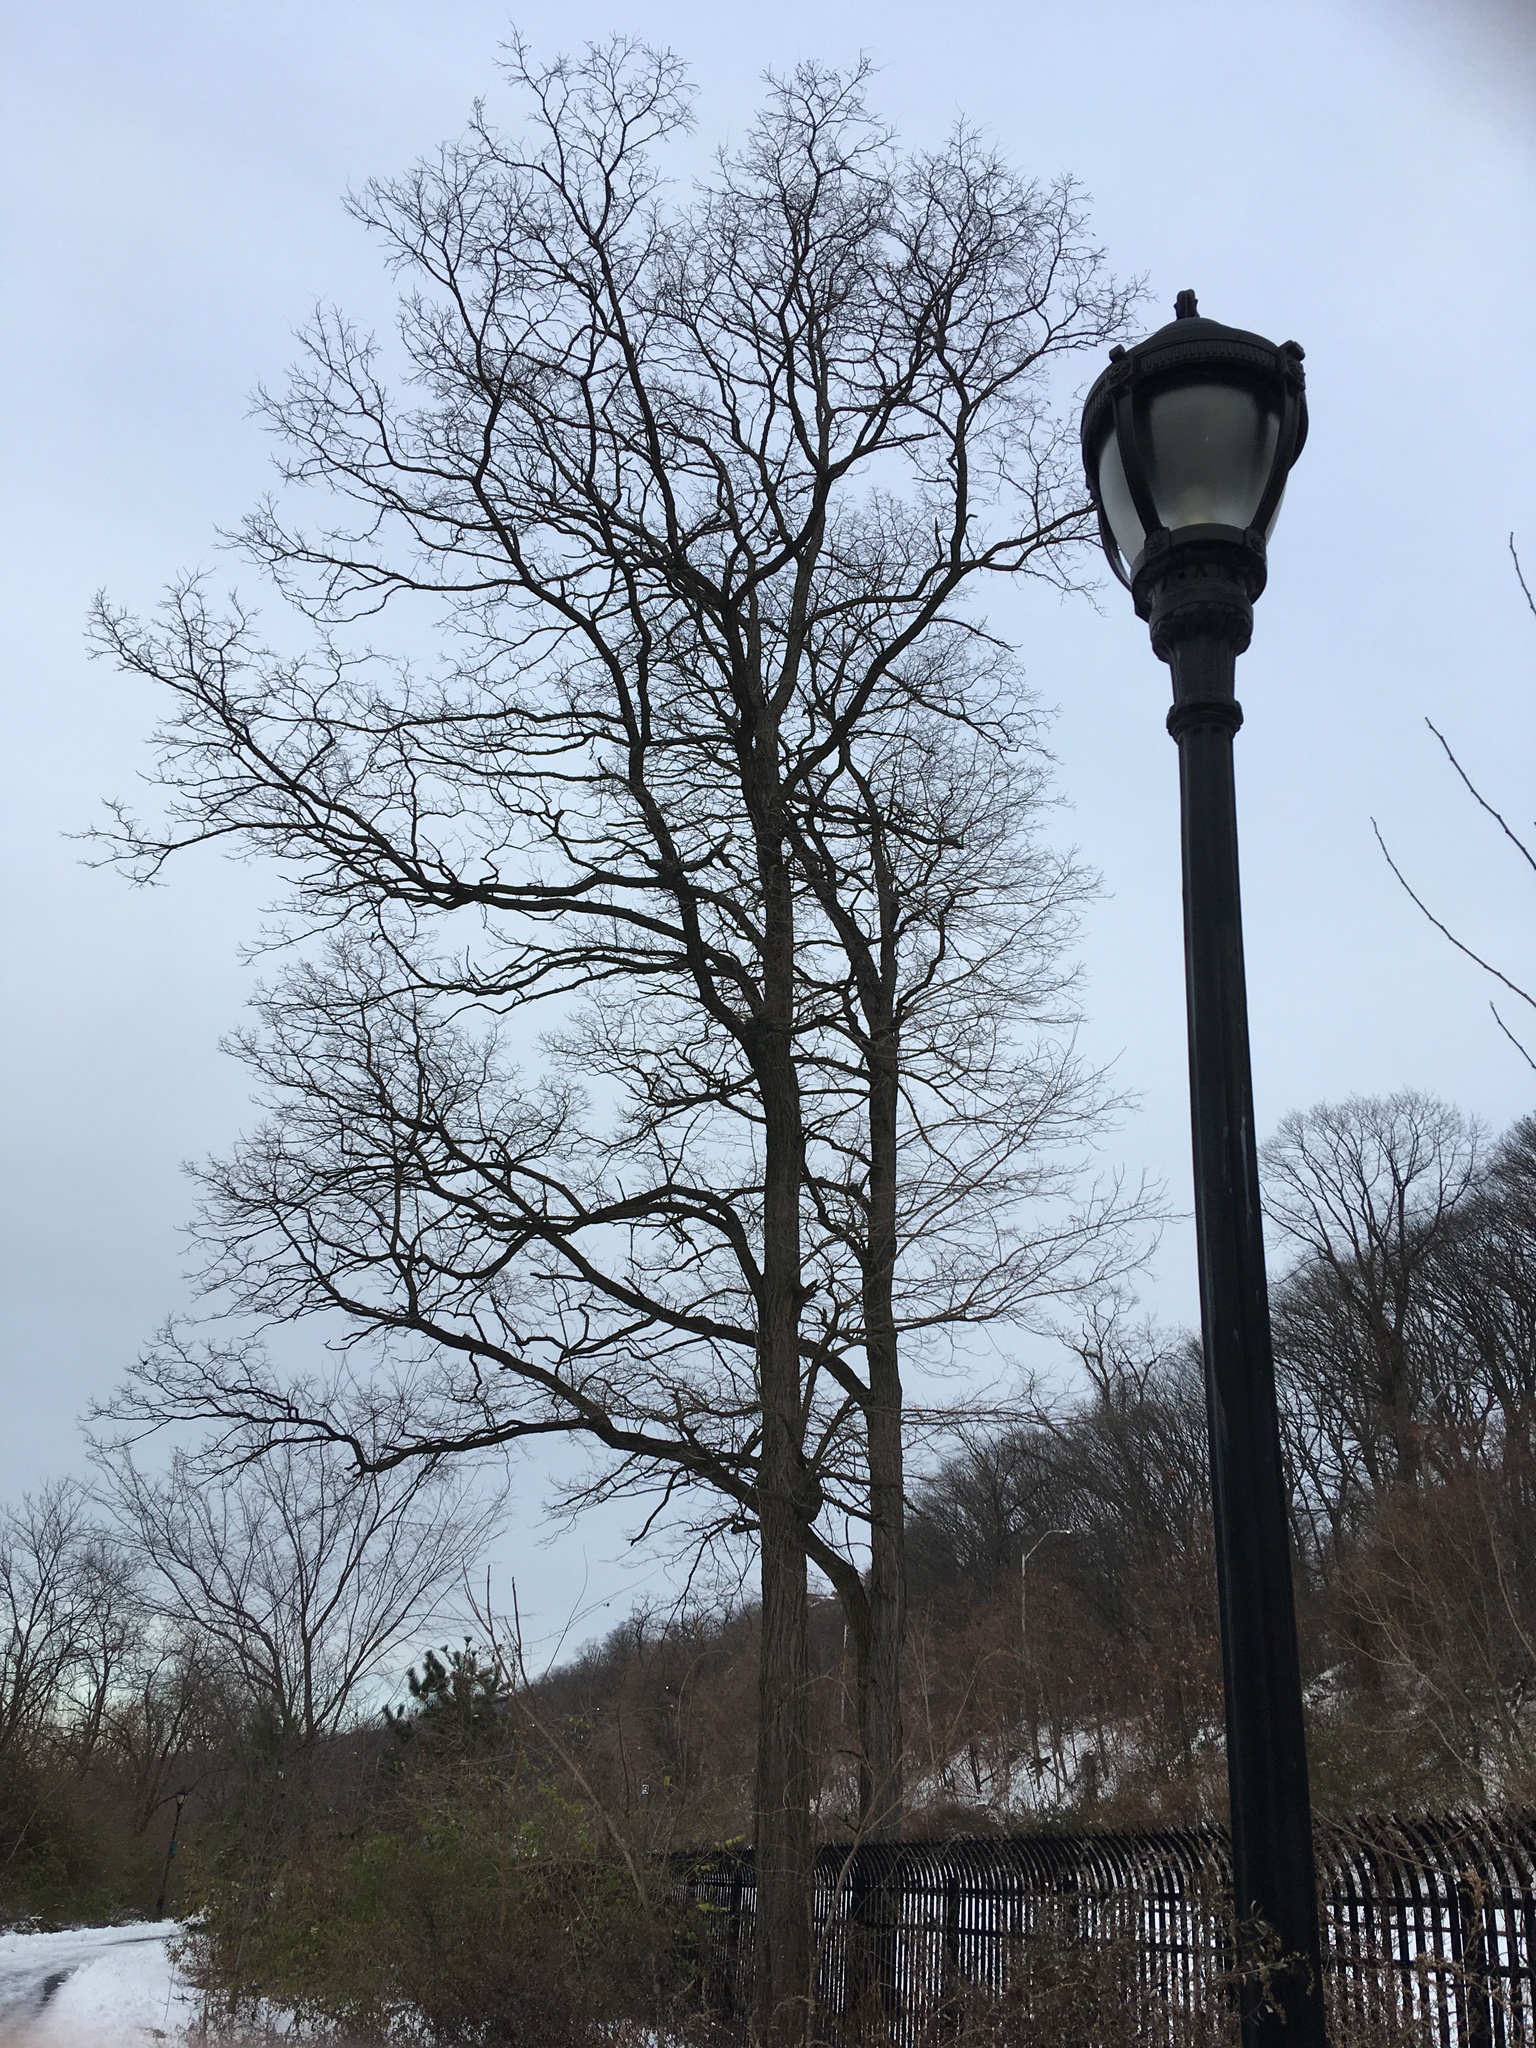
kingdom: Plantae
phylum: Tracheophyta
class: Magnoliopsida
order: Fabales
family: Fabaceae
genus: Robinia
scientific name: Robinia pseudoacacia
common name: Black locust
